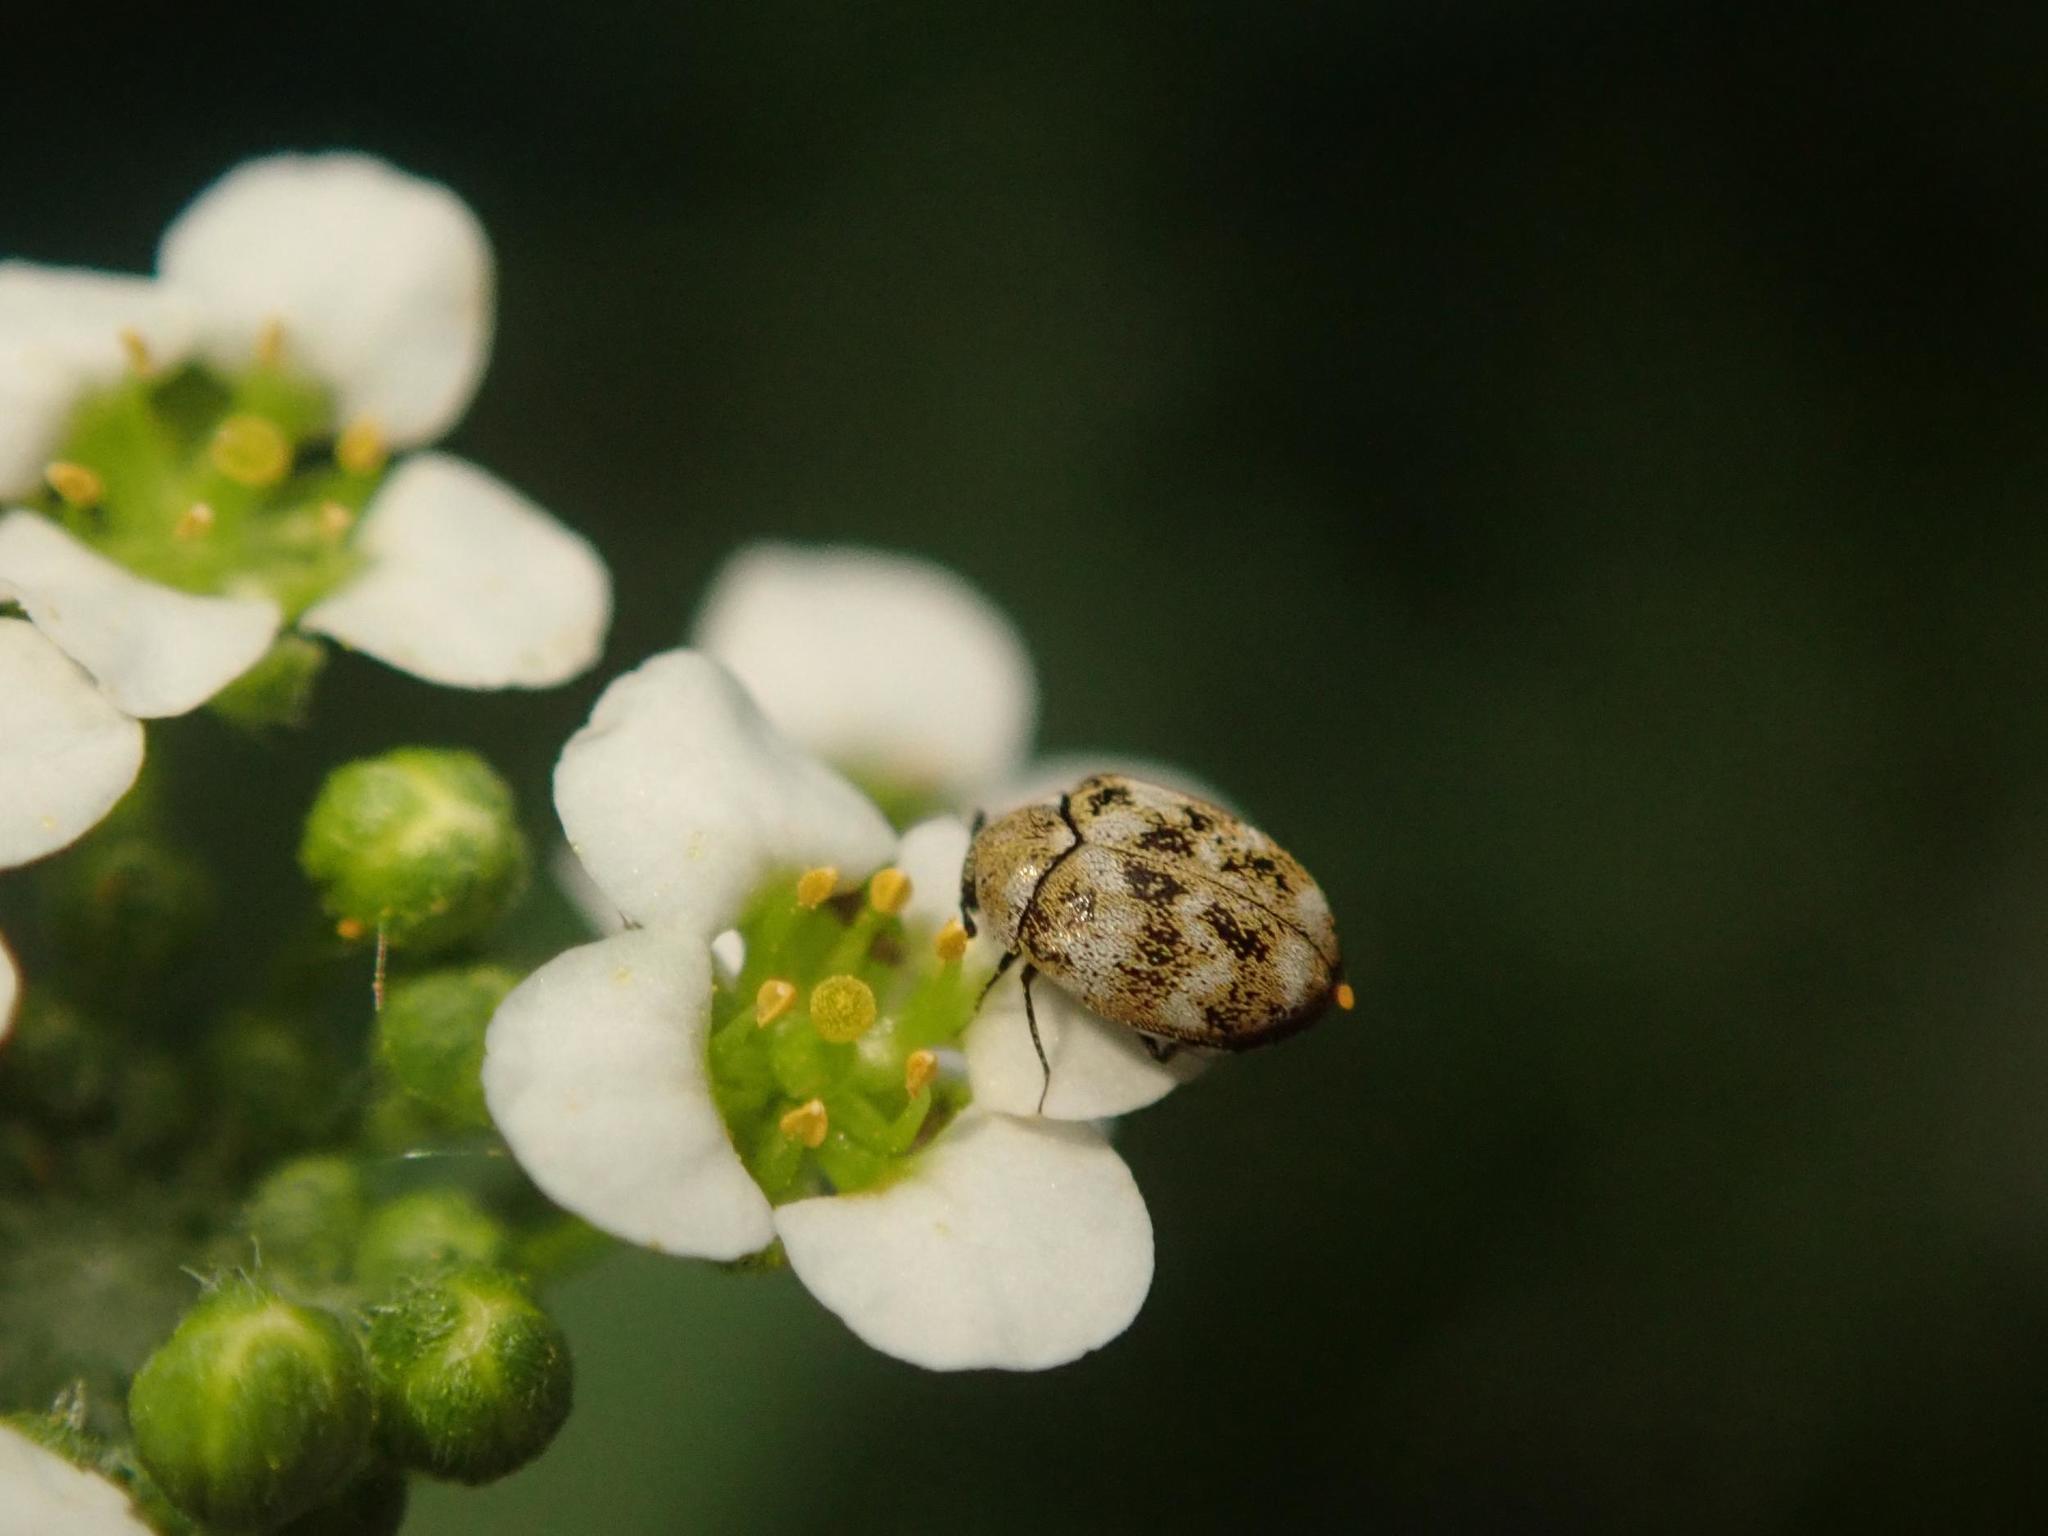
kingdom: Animalia
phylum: Arthropoda
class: Insecta
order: Coleoptera
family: Dermestidae
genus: Anthrenus
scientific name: Anthrenus verbasci
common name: Varied carpet beetle
